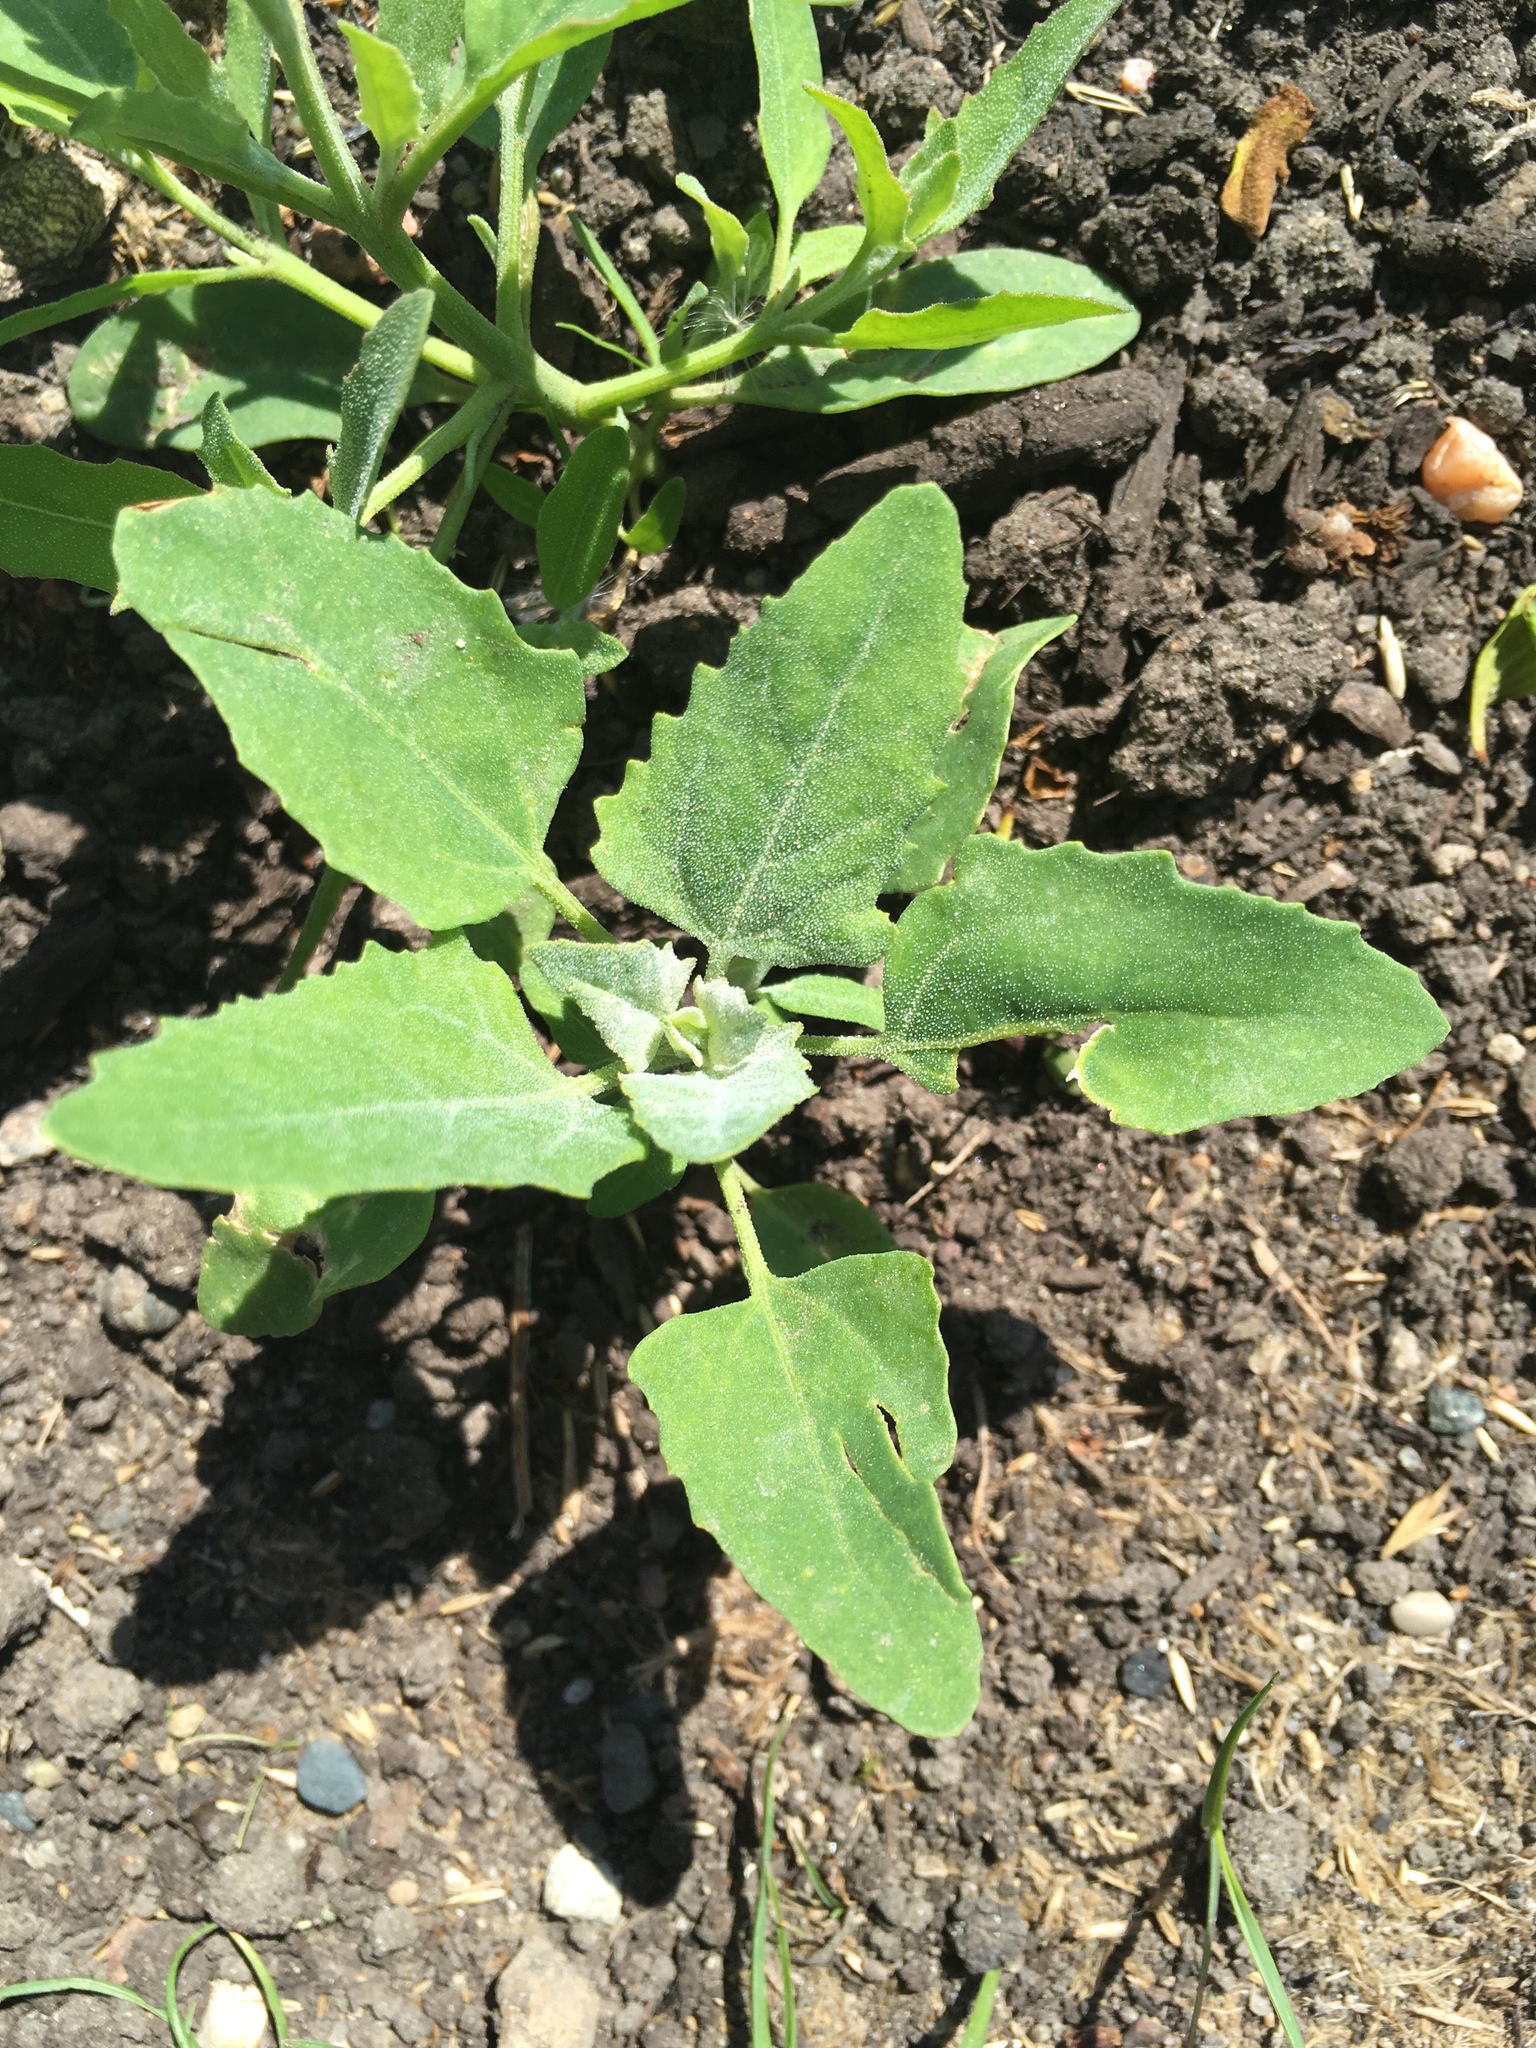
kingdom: Plantae
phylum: Tracheophyta
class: Magnoliopsida
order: Caryophyllales
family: Amaranthaceae
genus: Chenopodium
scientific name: Chenopodium album
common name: Fat-hen
